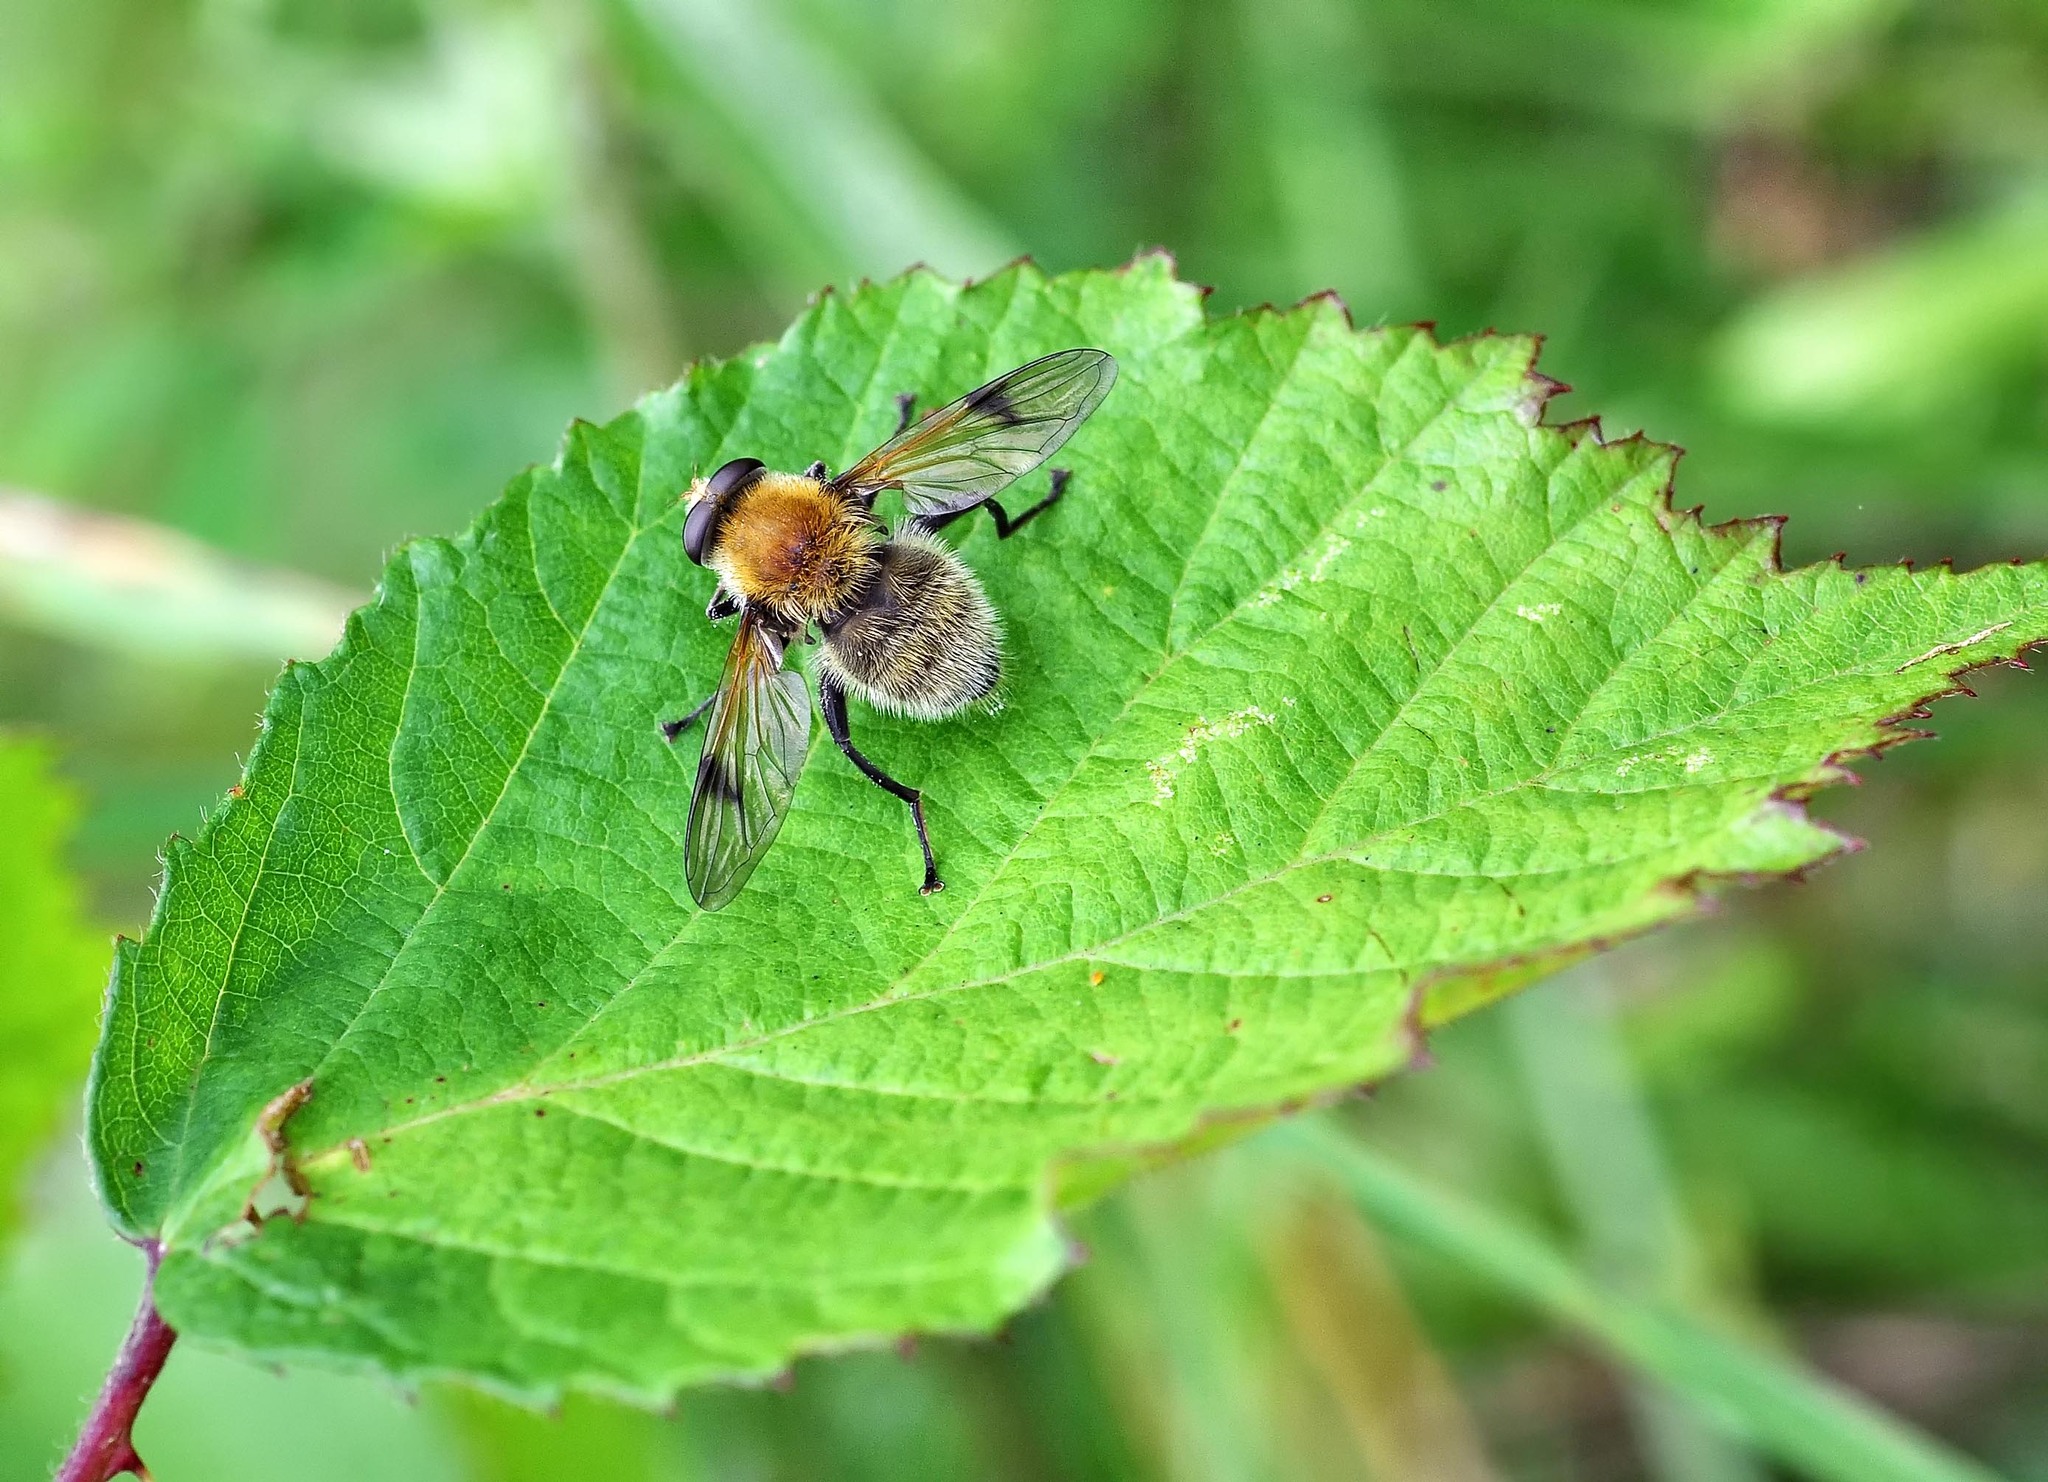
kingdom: Animalia
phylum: Arthropoda
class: Insecta
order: Diptera
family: Syrphidae
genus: Sericomyia
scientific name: Sericomyia superbiens
